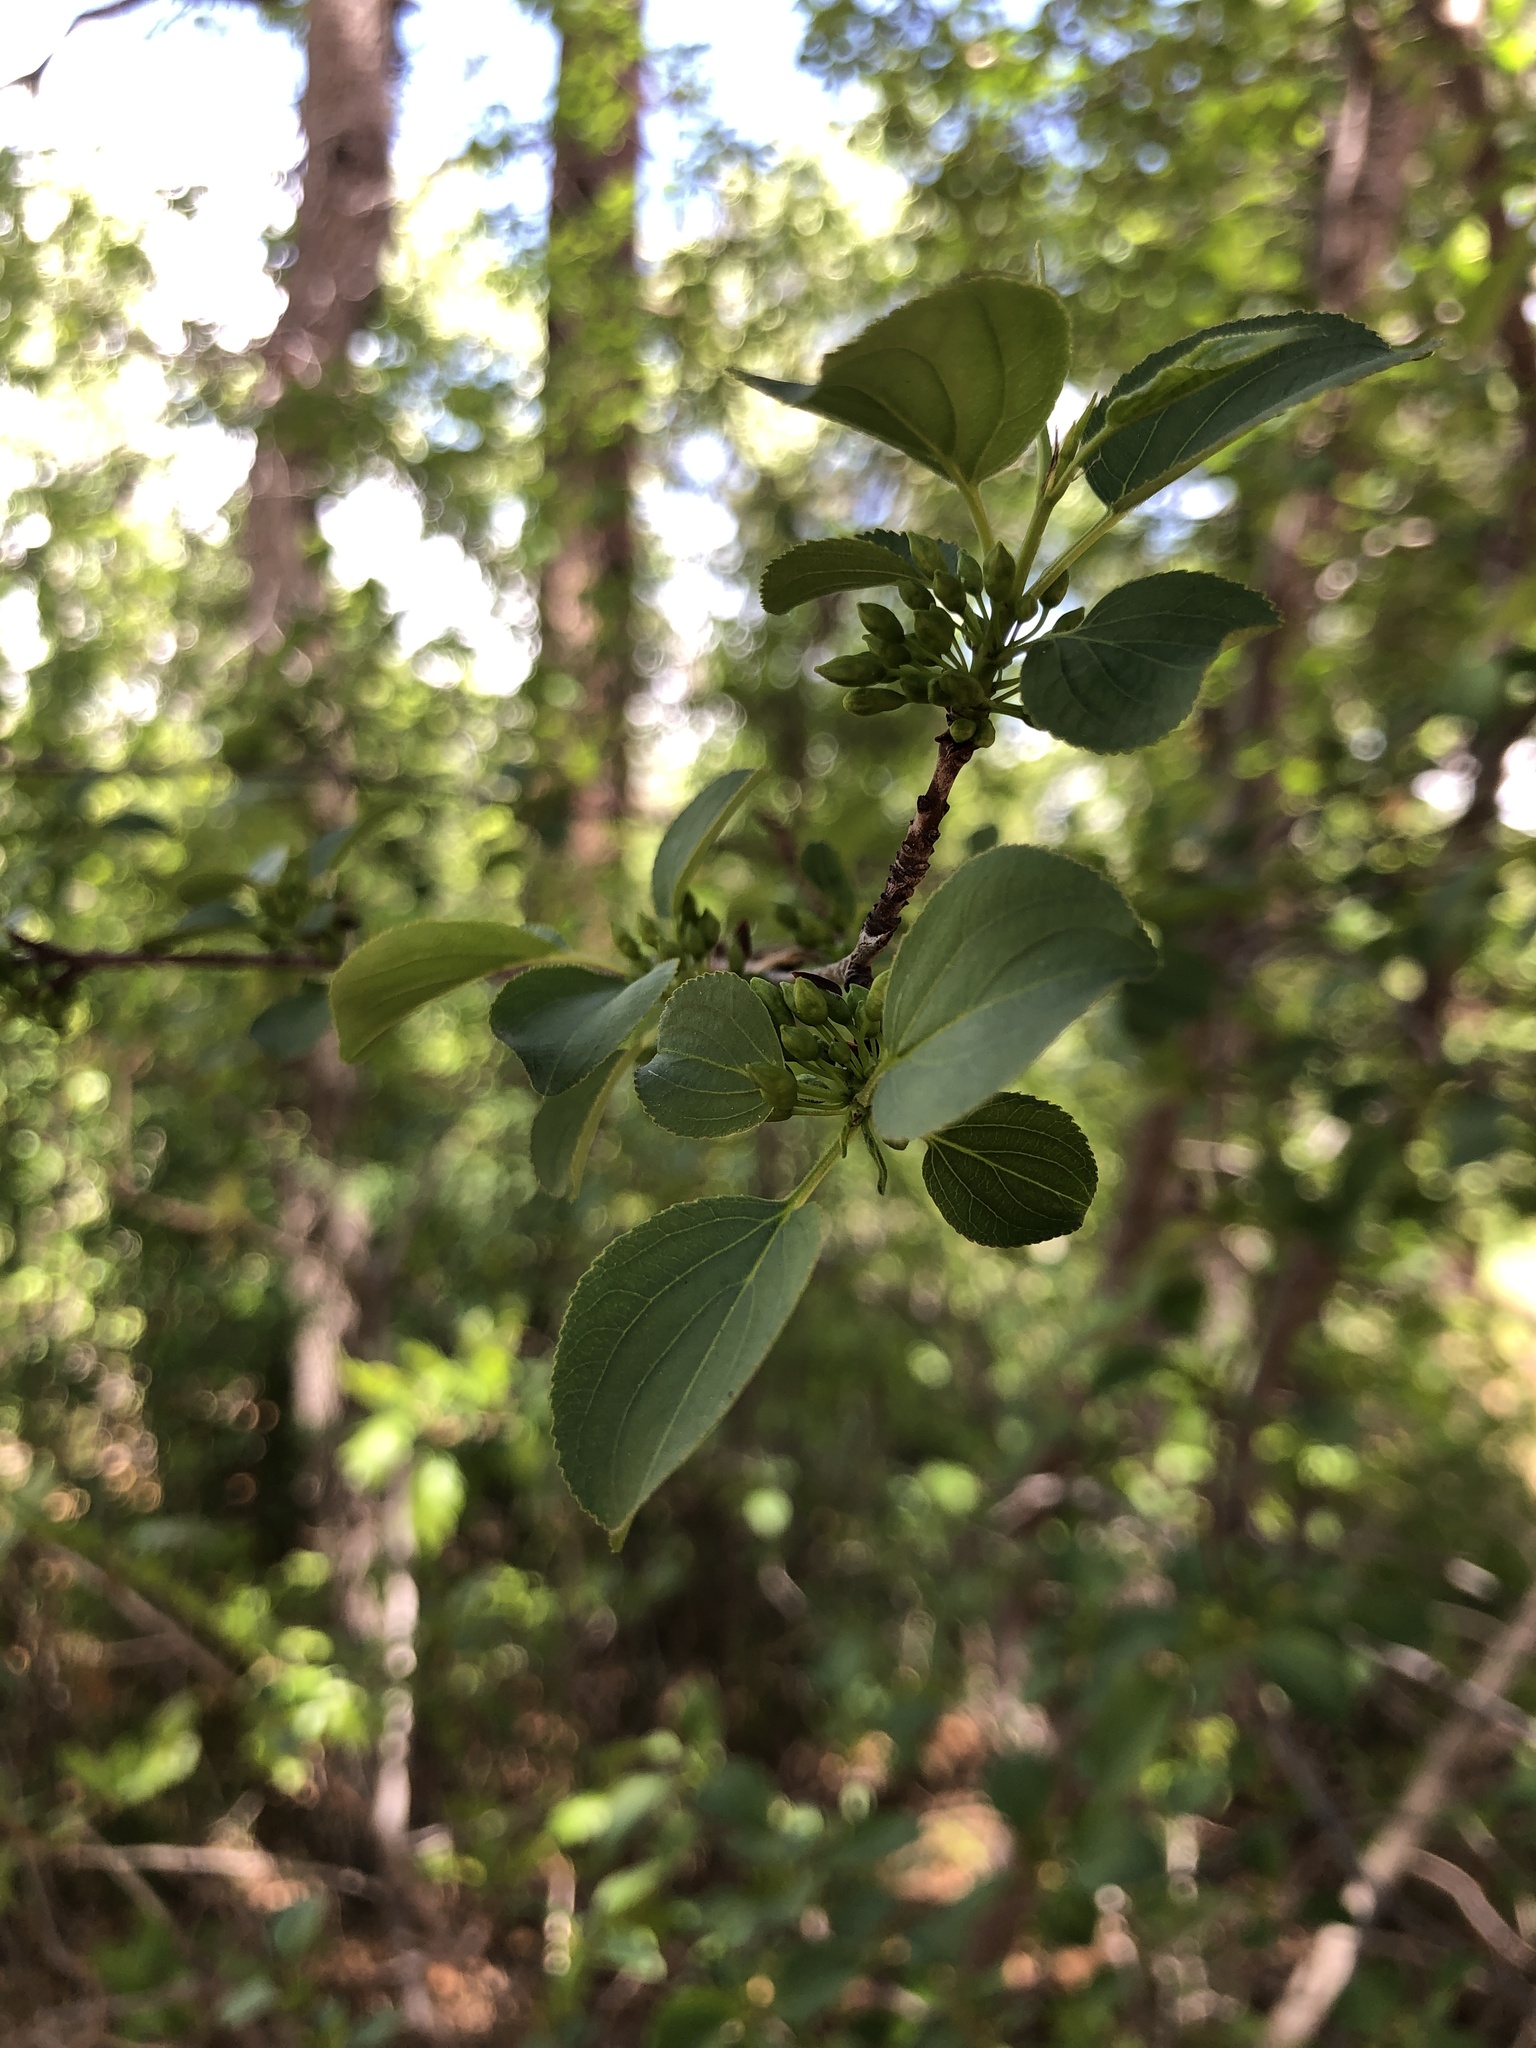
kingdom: Plantae
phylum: Tracheophyta
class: Magnoliopsida
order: Rosales
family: Rhamnaceae
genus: Rhamnus
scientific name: Rhamnus cathartica
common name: Common buckthorn
